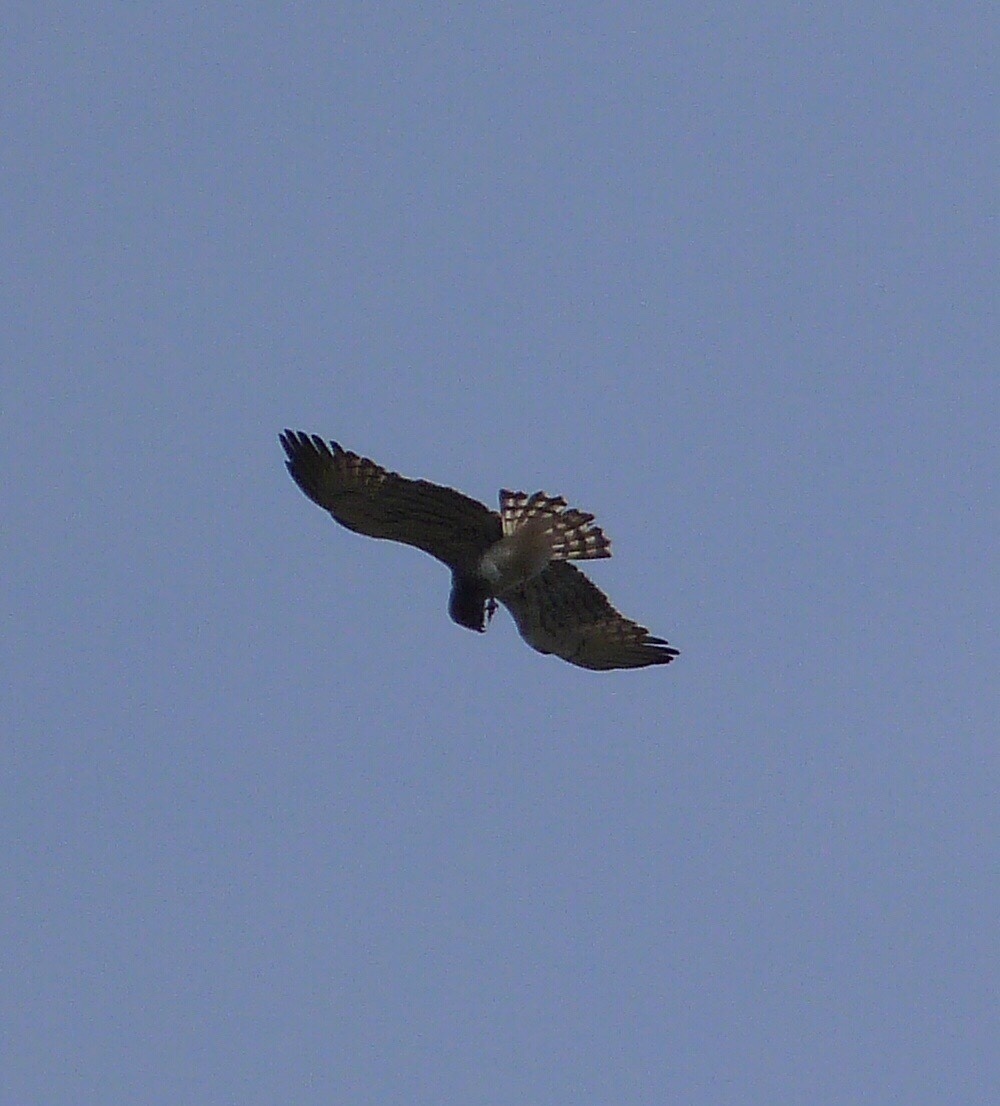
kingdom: Animalia
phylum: Chordata
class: Aves
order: Accipitriformes
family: Accipitridae
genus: Circaetus
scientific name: Circaetus gallicus
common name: Short-toed snake eagle
